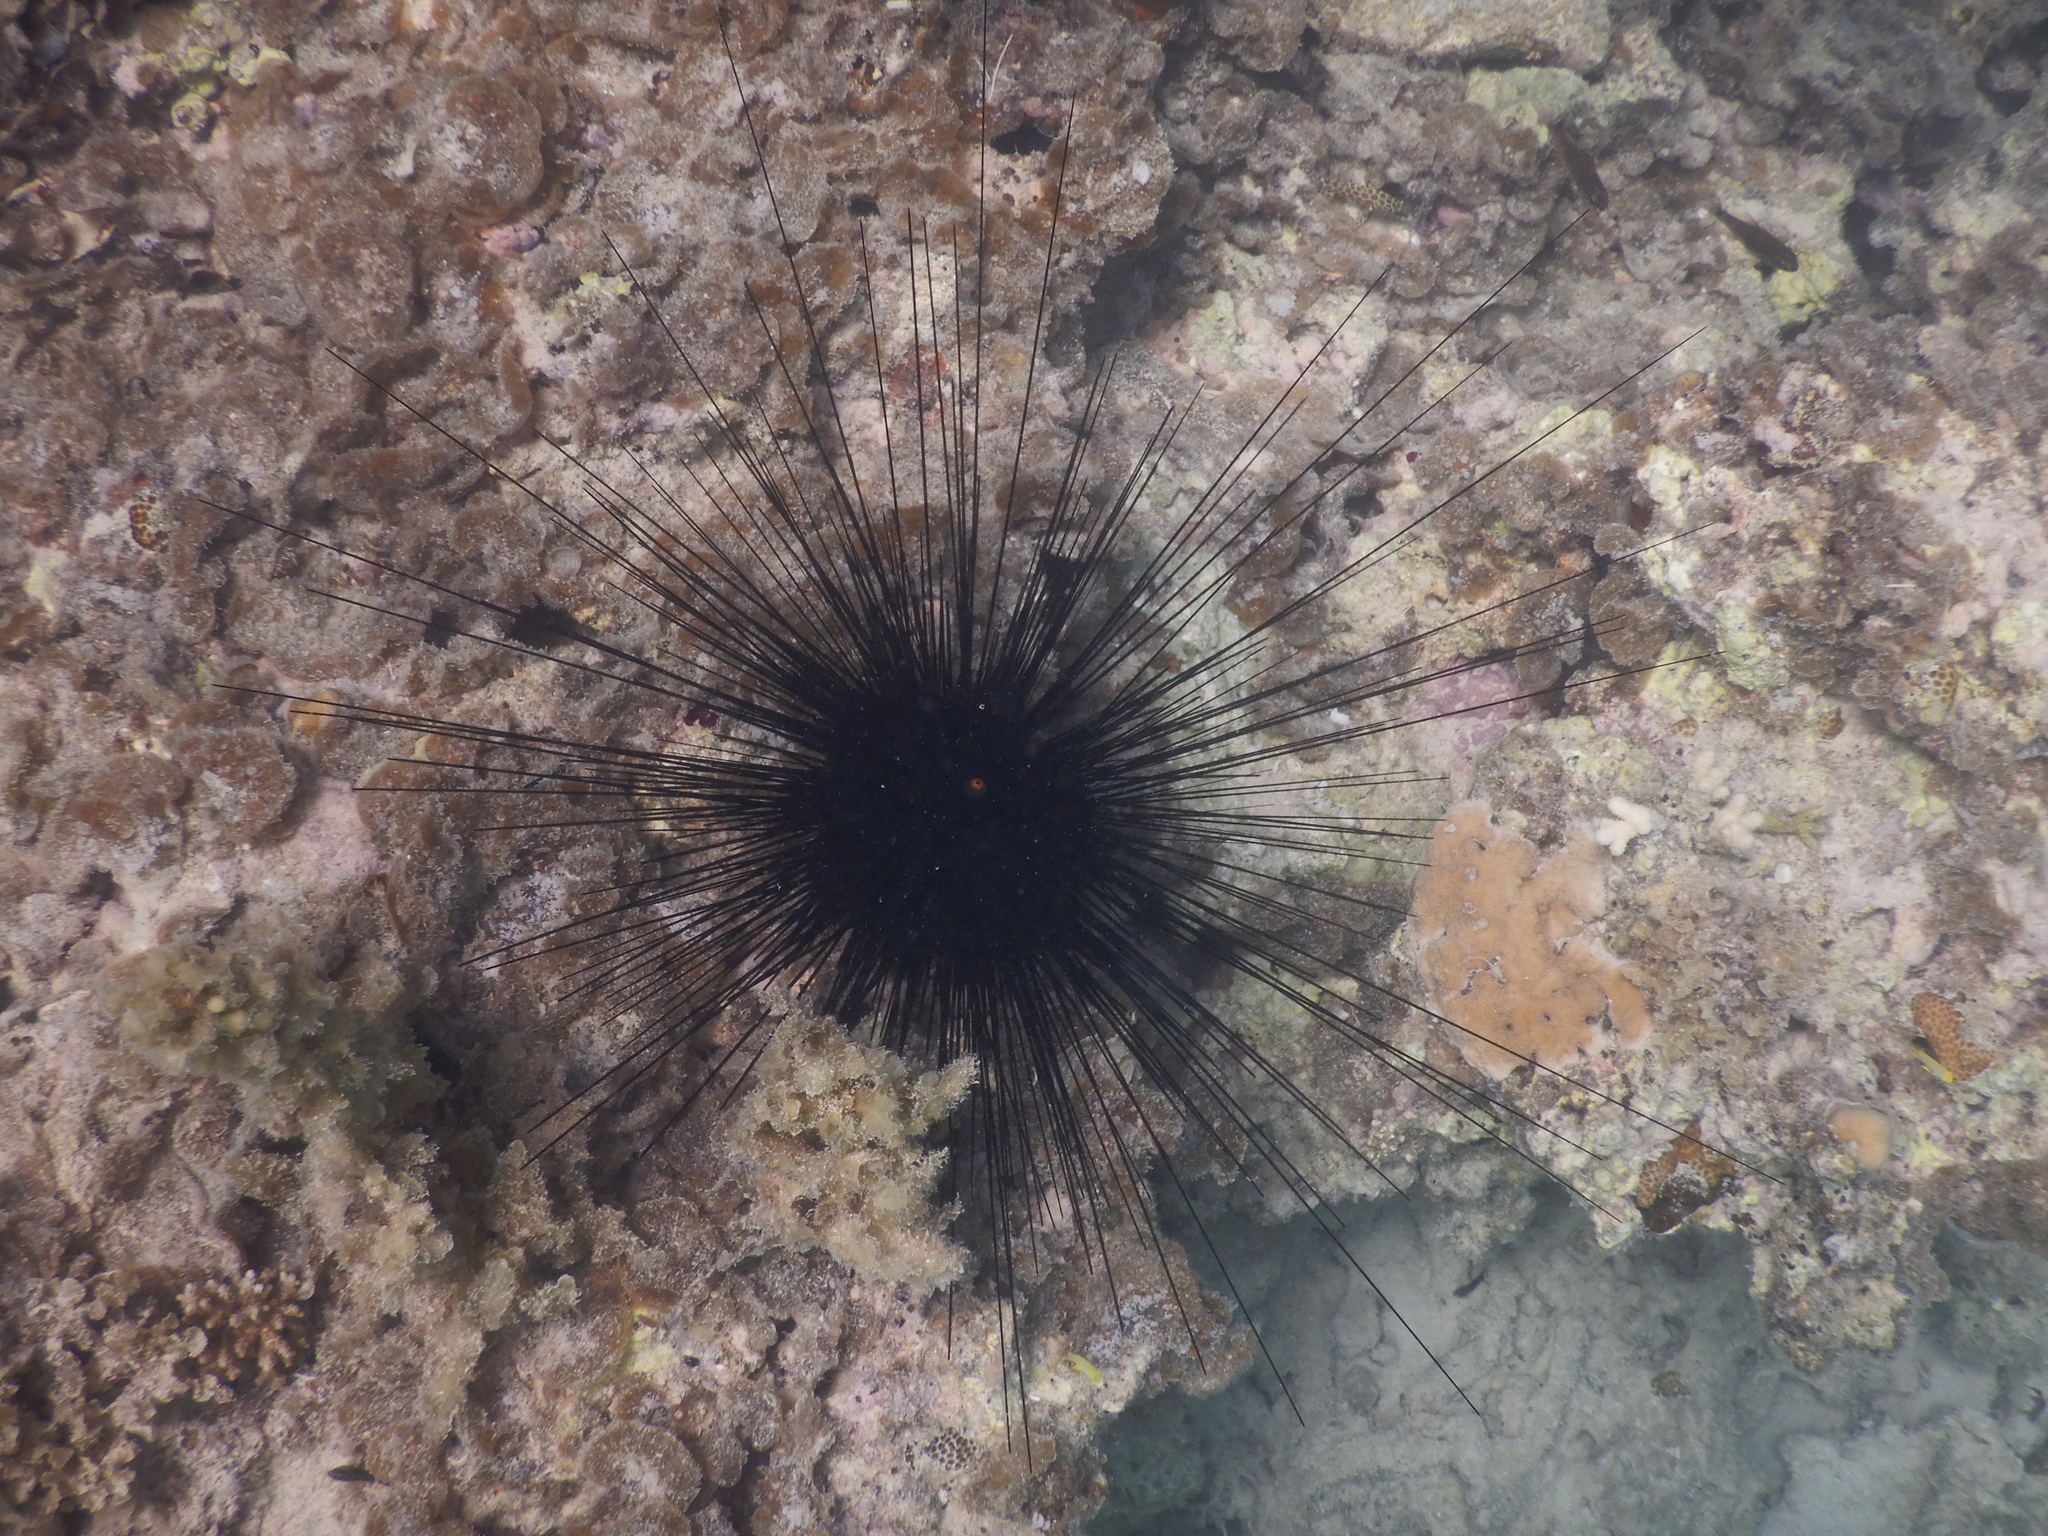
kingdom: Animalia
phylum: Echinodermata
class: Echinoidea
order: Diadematoida
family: Diadematidae
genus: Diadema
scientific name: Diadema setosum
